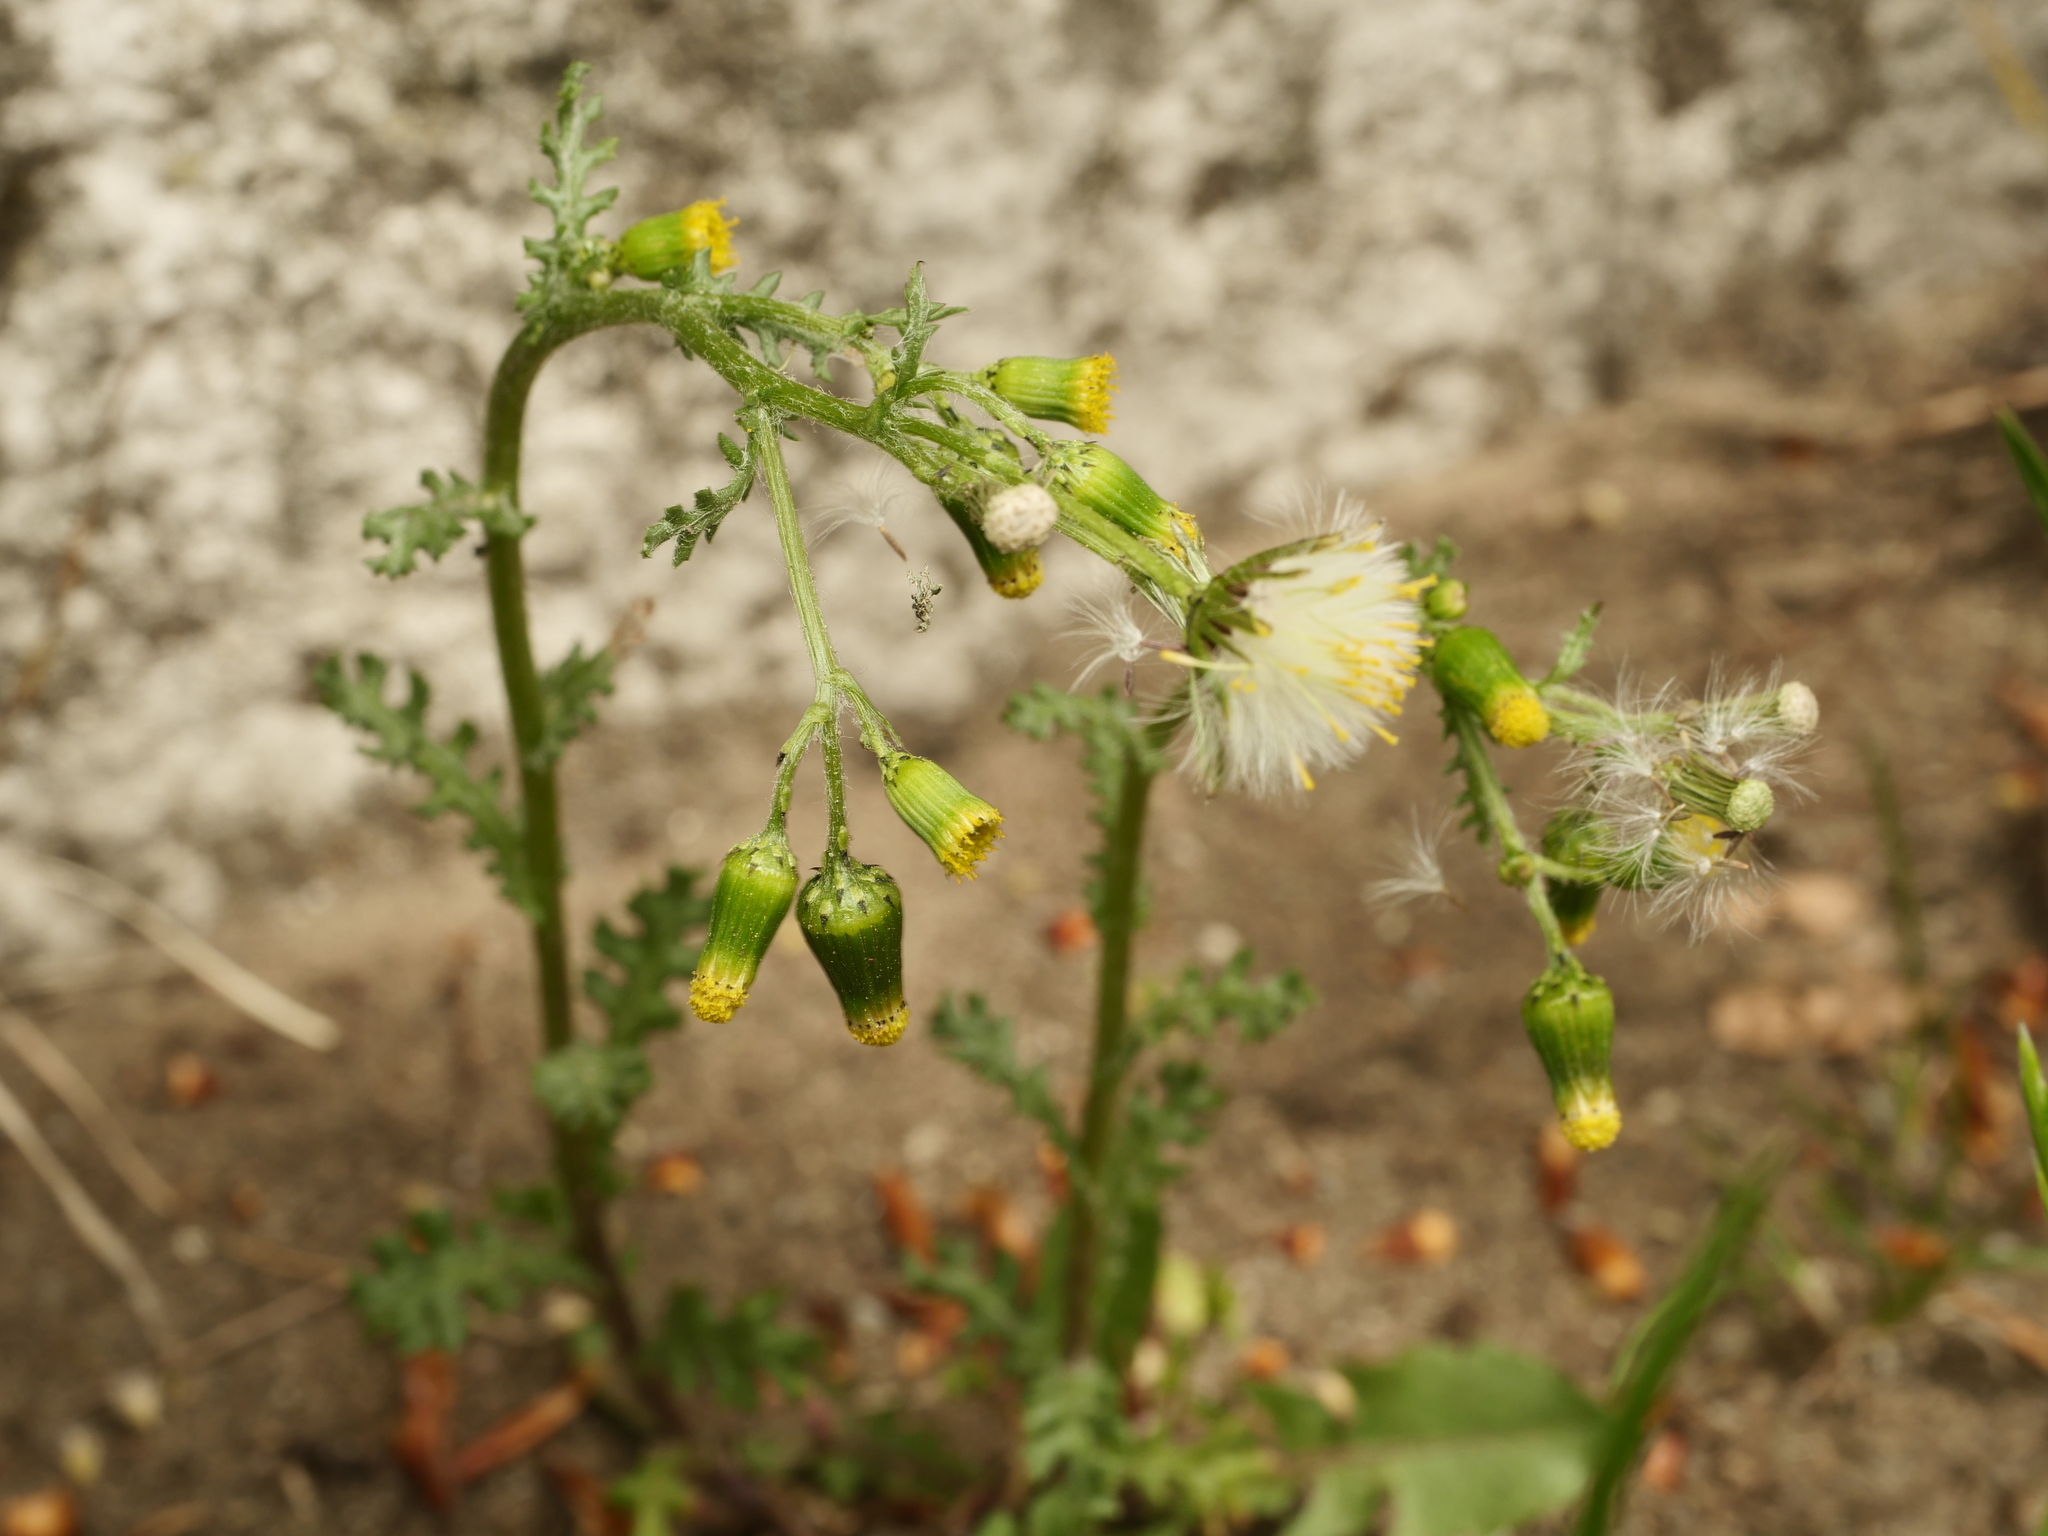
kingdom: Plantae
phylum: Tracheophyta
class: Magnoliopsida
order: Asterales
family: Asteraceae
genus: Senecio
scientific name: Senecio vulgaris
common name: Old-man-in-the-spring
